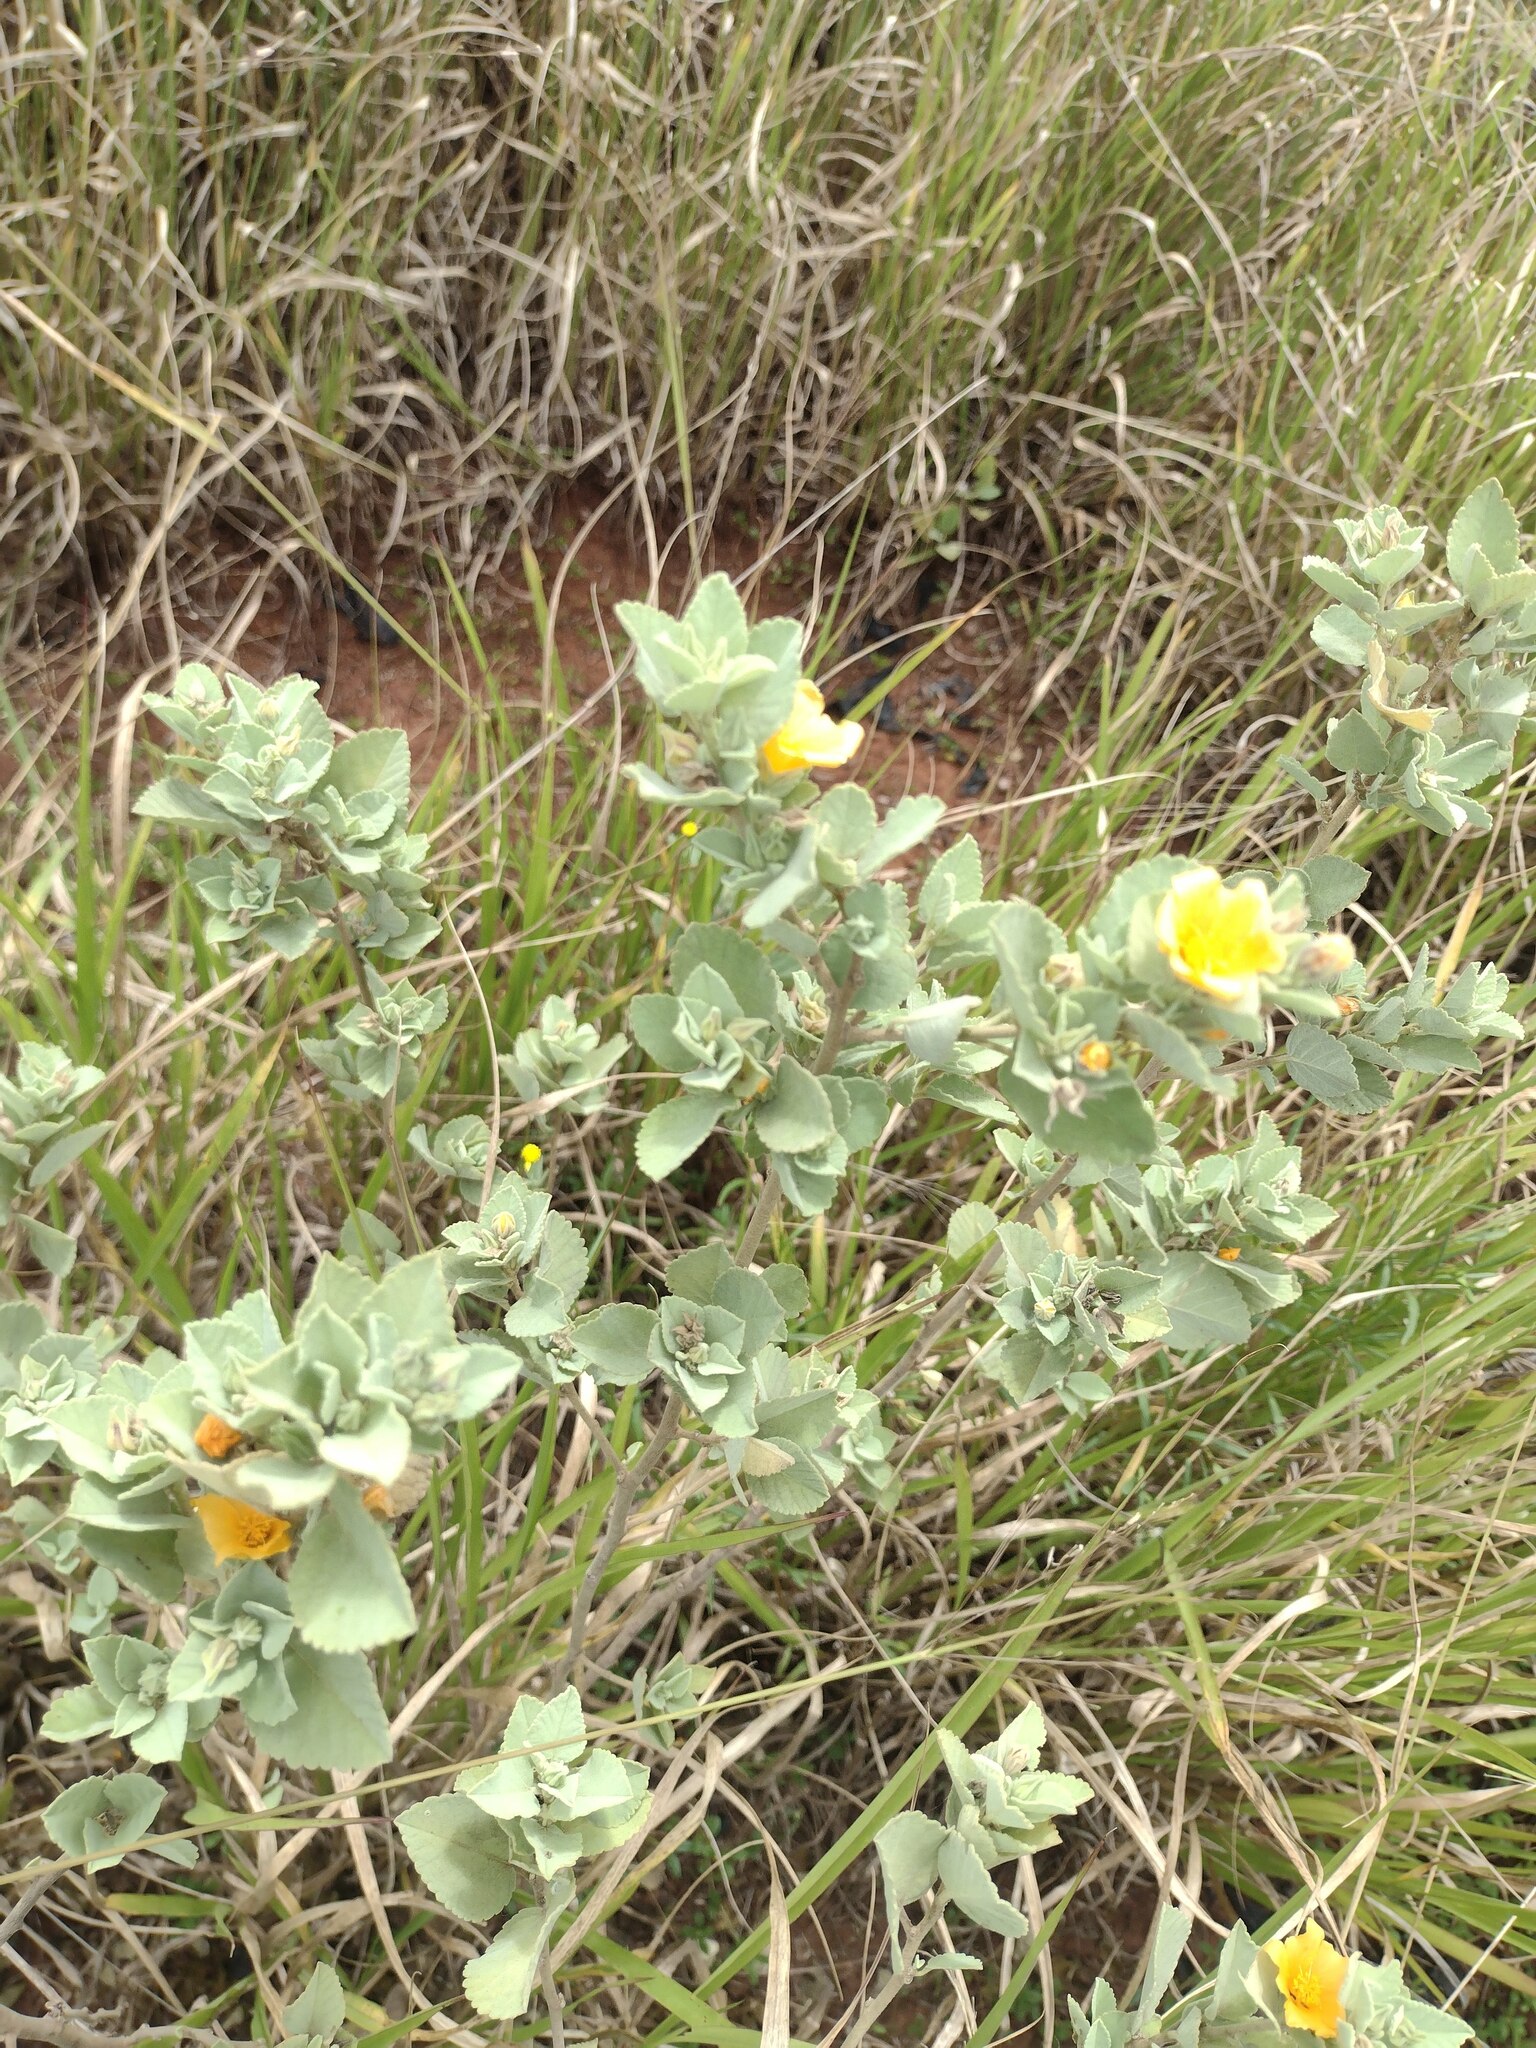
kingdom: Plantae
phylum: Tracheophyta
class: Magnoliopsida
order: Malvales
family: Malvaceae
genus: Sida
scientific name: Sida fallax
